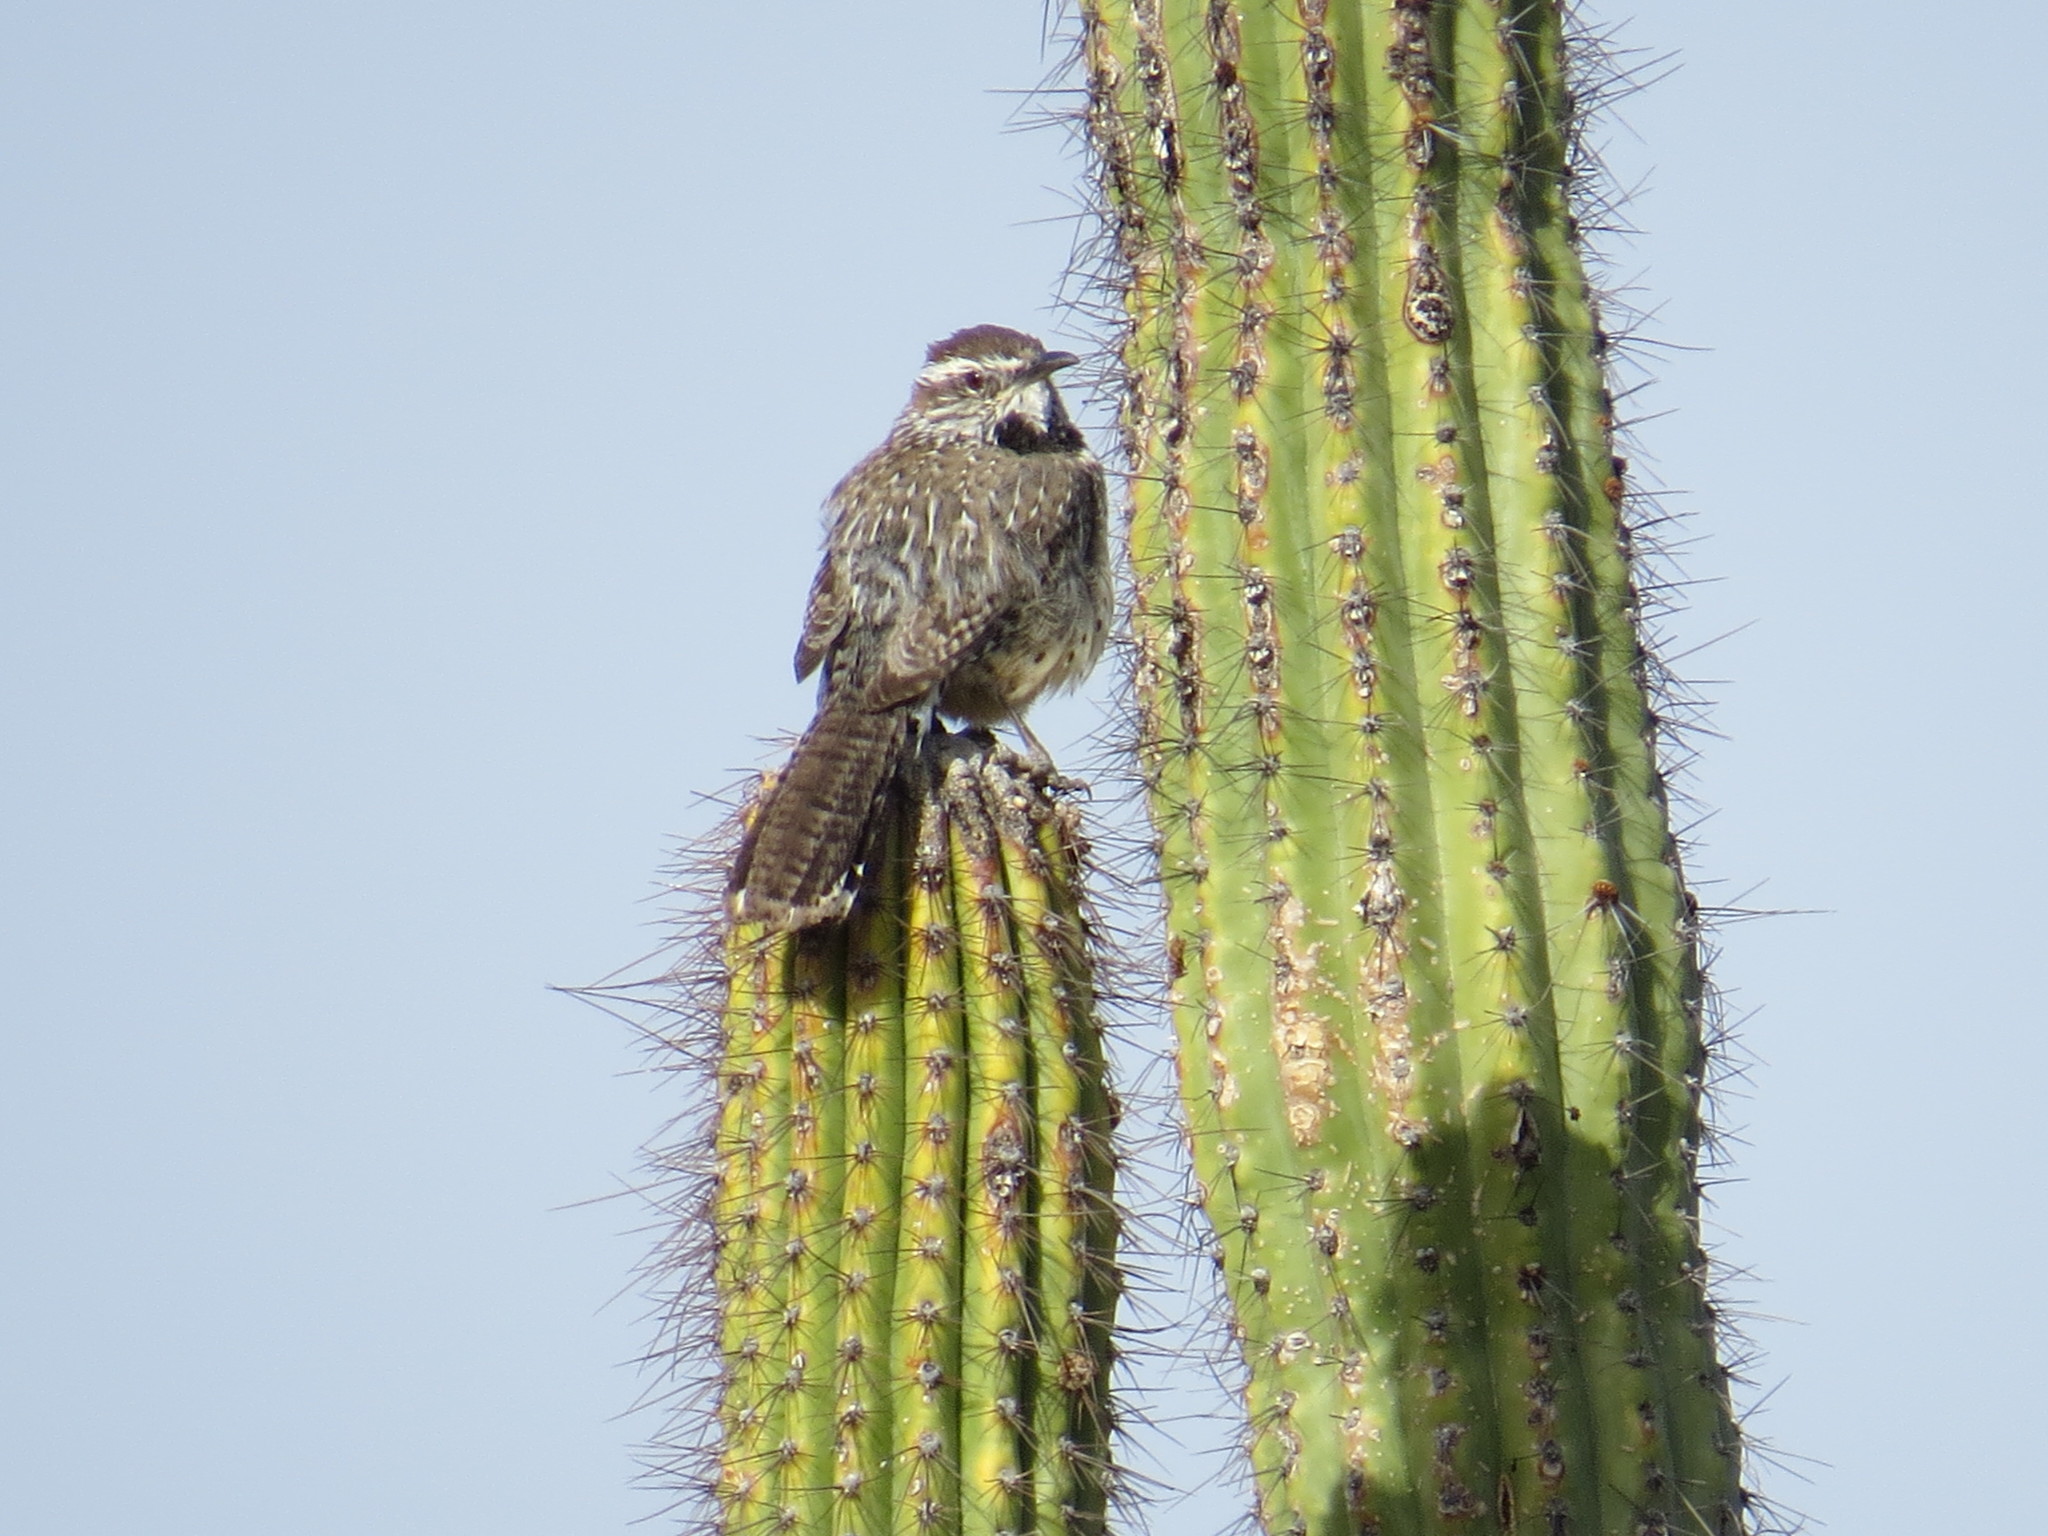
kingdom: Animalia
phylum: Chordata
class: Aves
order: Passeriformes
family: Troglodytidae
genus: Campylorhynchus
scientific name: Campylorhynchus brunneicapillus
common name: Cactus wren
